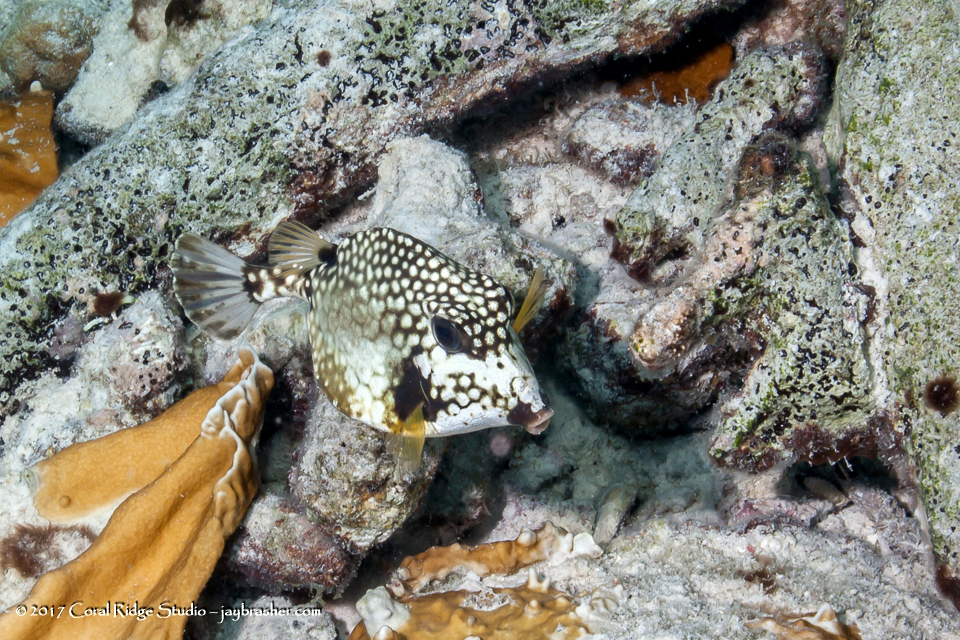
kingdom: Animalia
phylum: Chordata
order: Tetraodontiformes
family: Ostraciidae
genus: Lactophrys
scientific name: Lactophrys triqueter
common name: Smooth trunkfish
